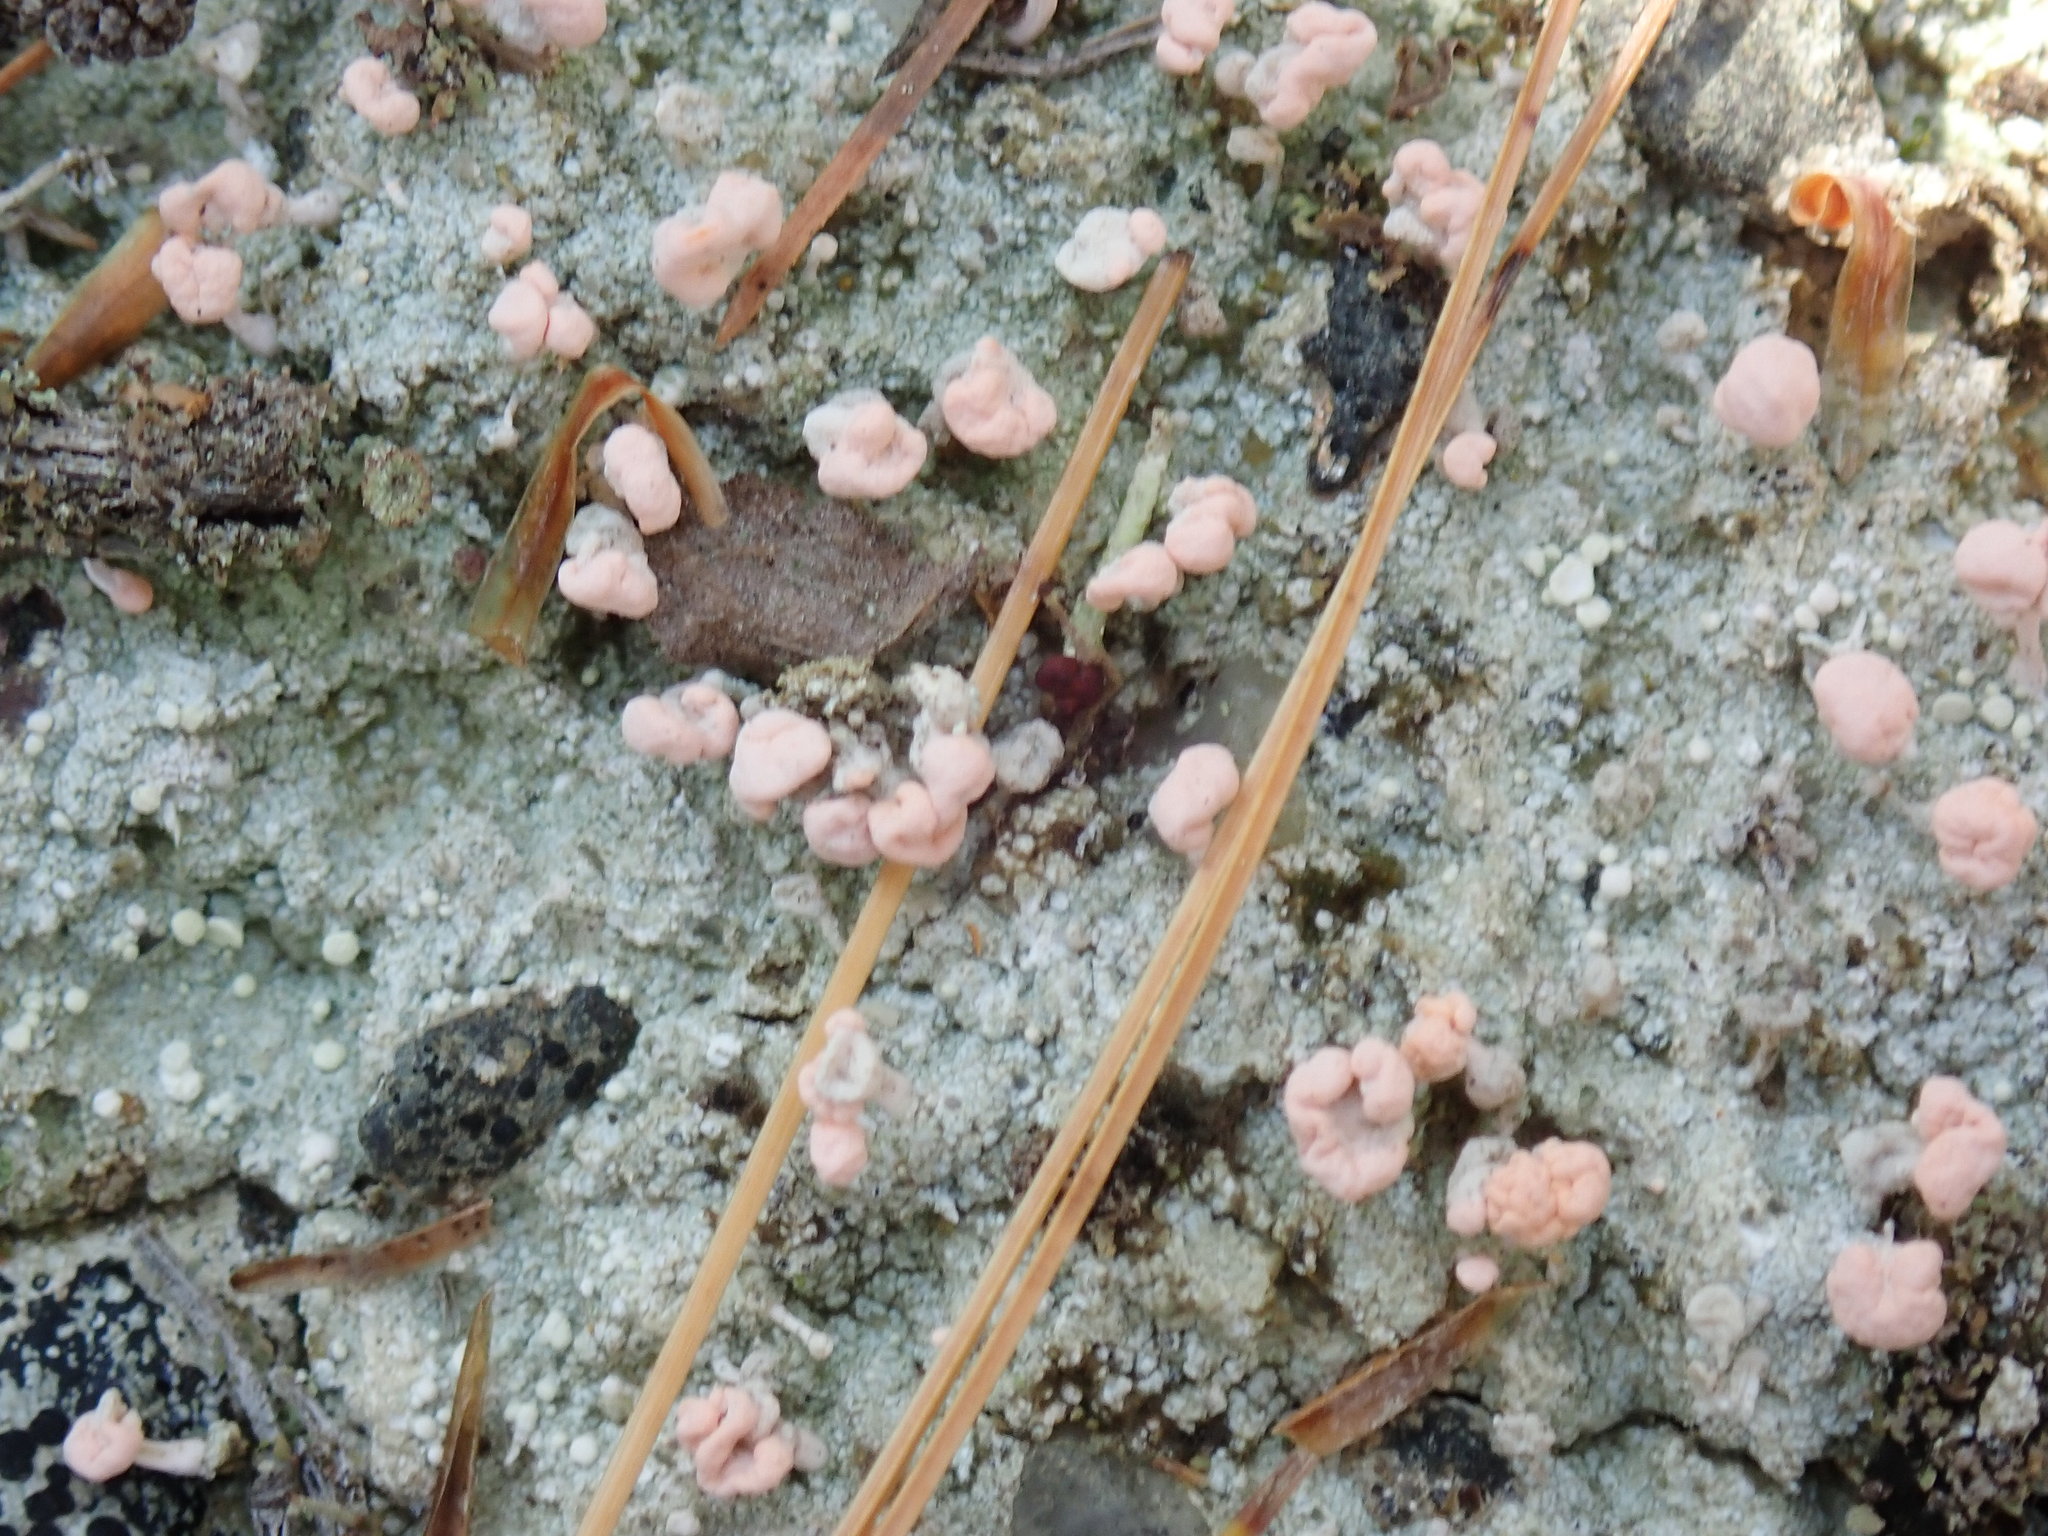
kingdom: Fungi
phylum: Ascomycota
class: Lecanoromycetes
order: Pertusariales
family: Icmadophilaceae
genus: Dibaeis
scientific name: Dibaeis baeomyces
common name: Pink earth lichen
